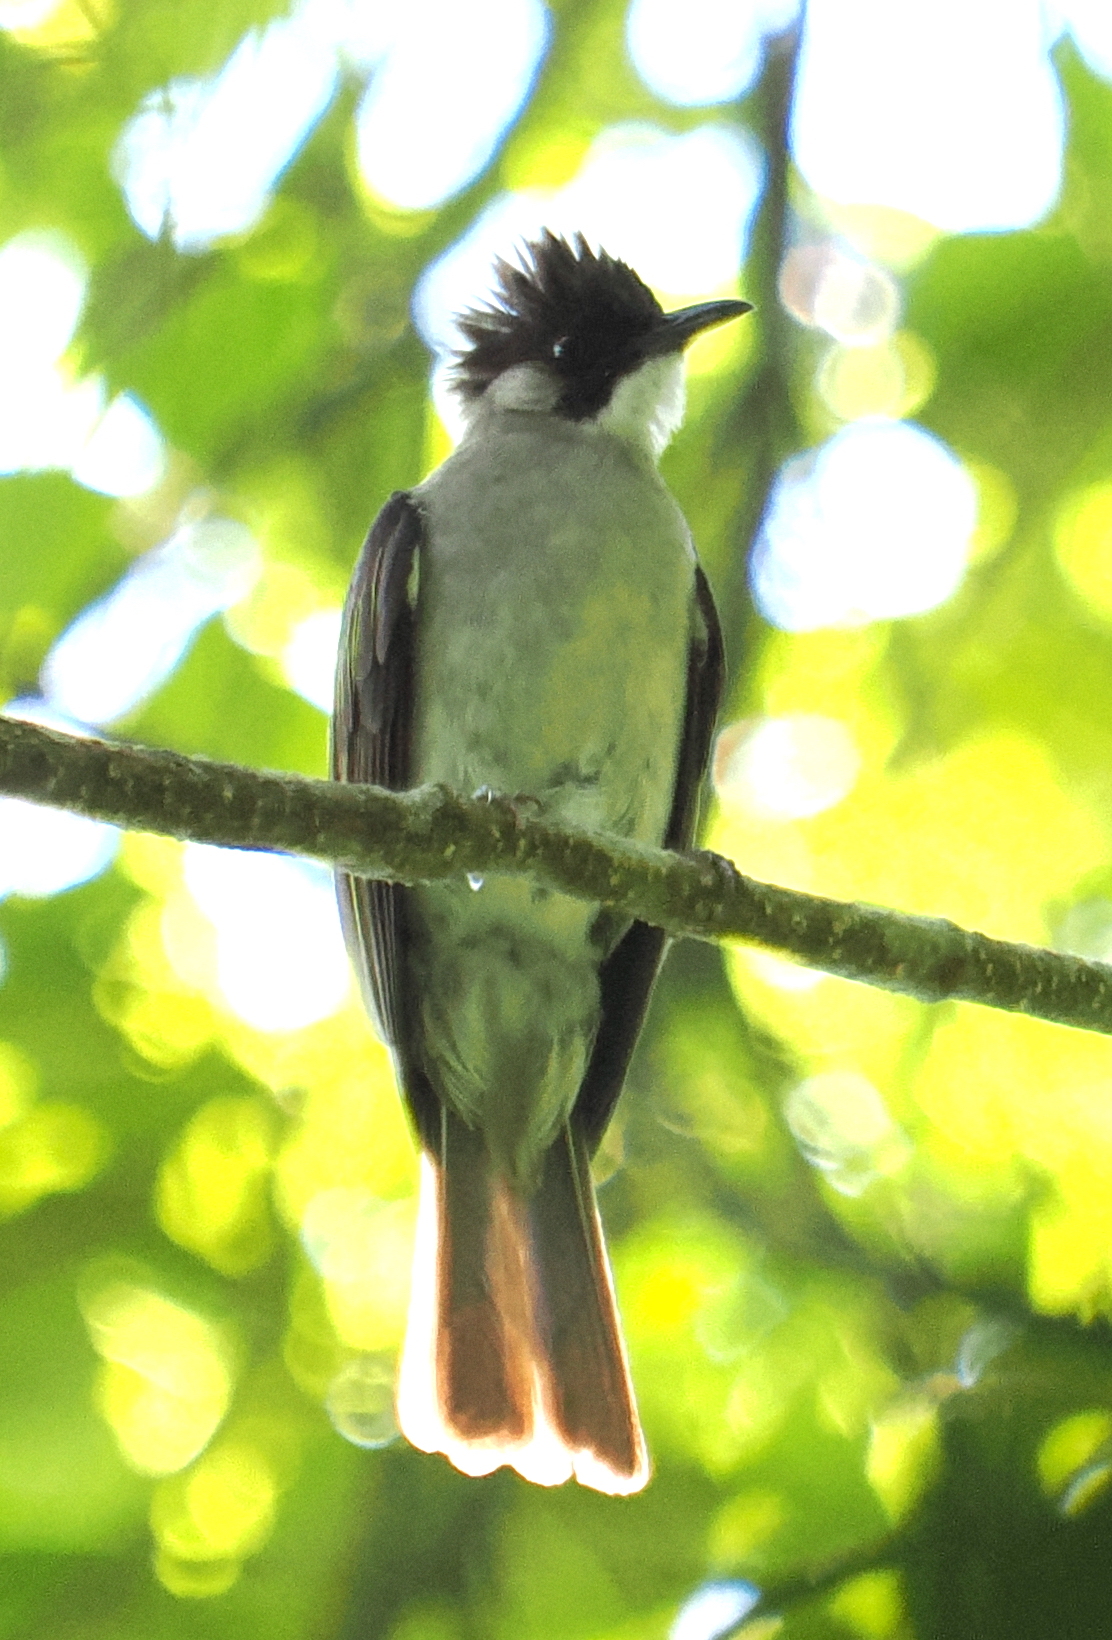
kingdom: Animalia
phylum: Chordata
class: Aves
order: Passeriformes
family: Pycnonotidae
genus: Hemixos
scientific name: Hemixos flavala
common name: Ashy bulbul
